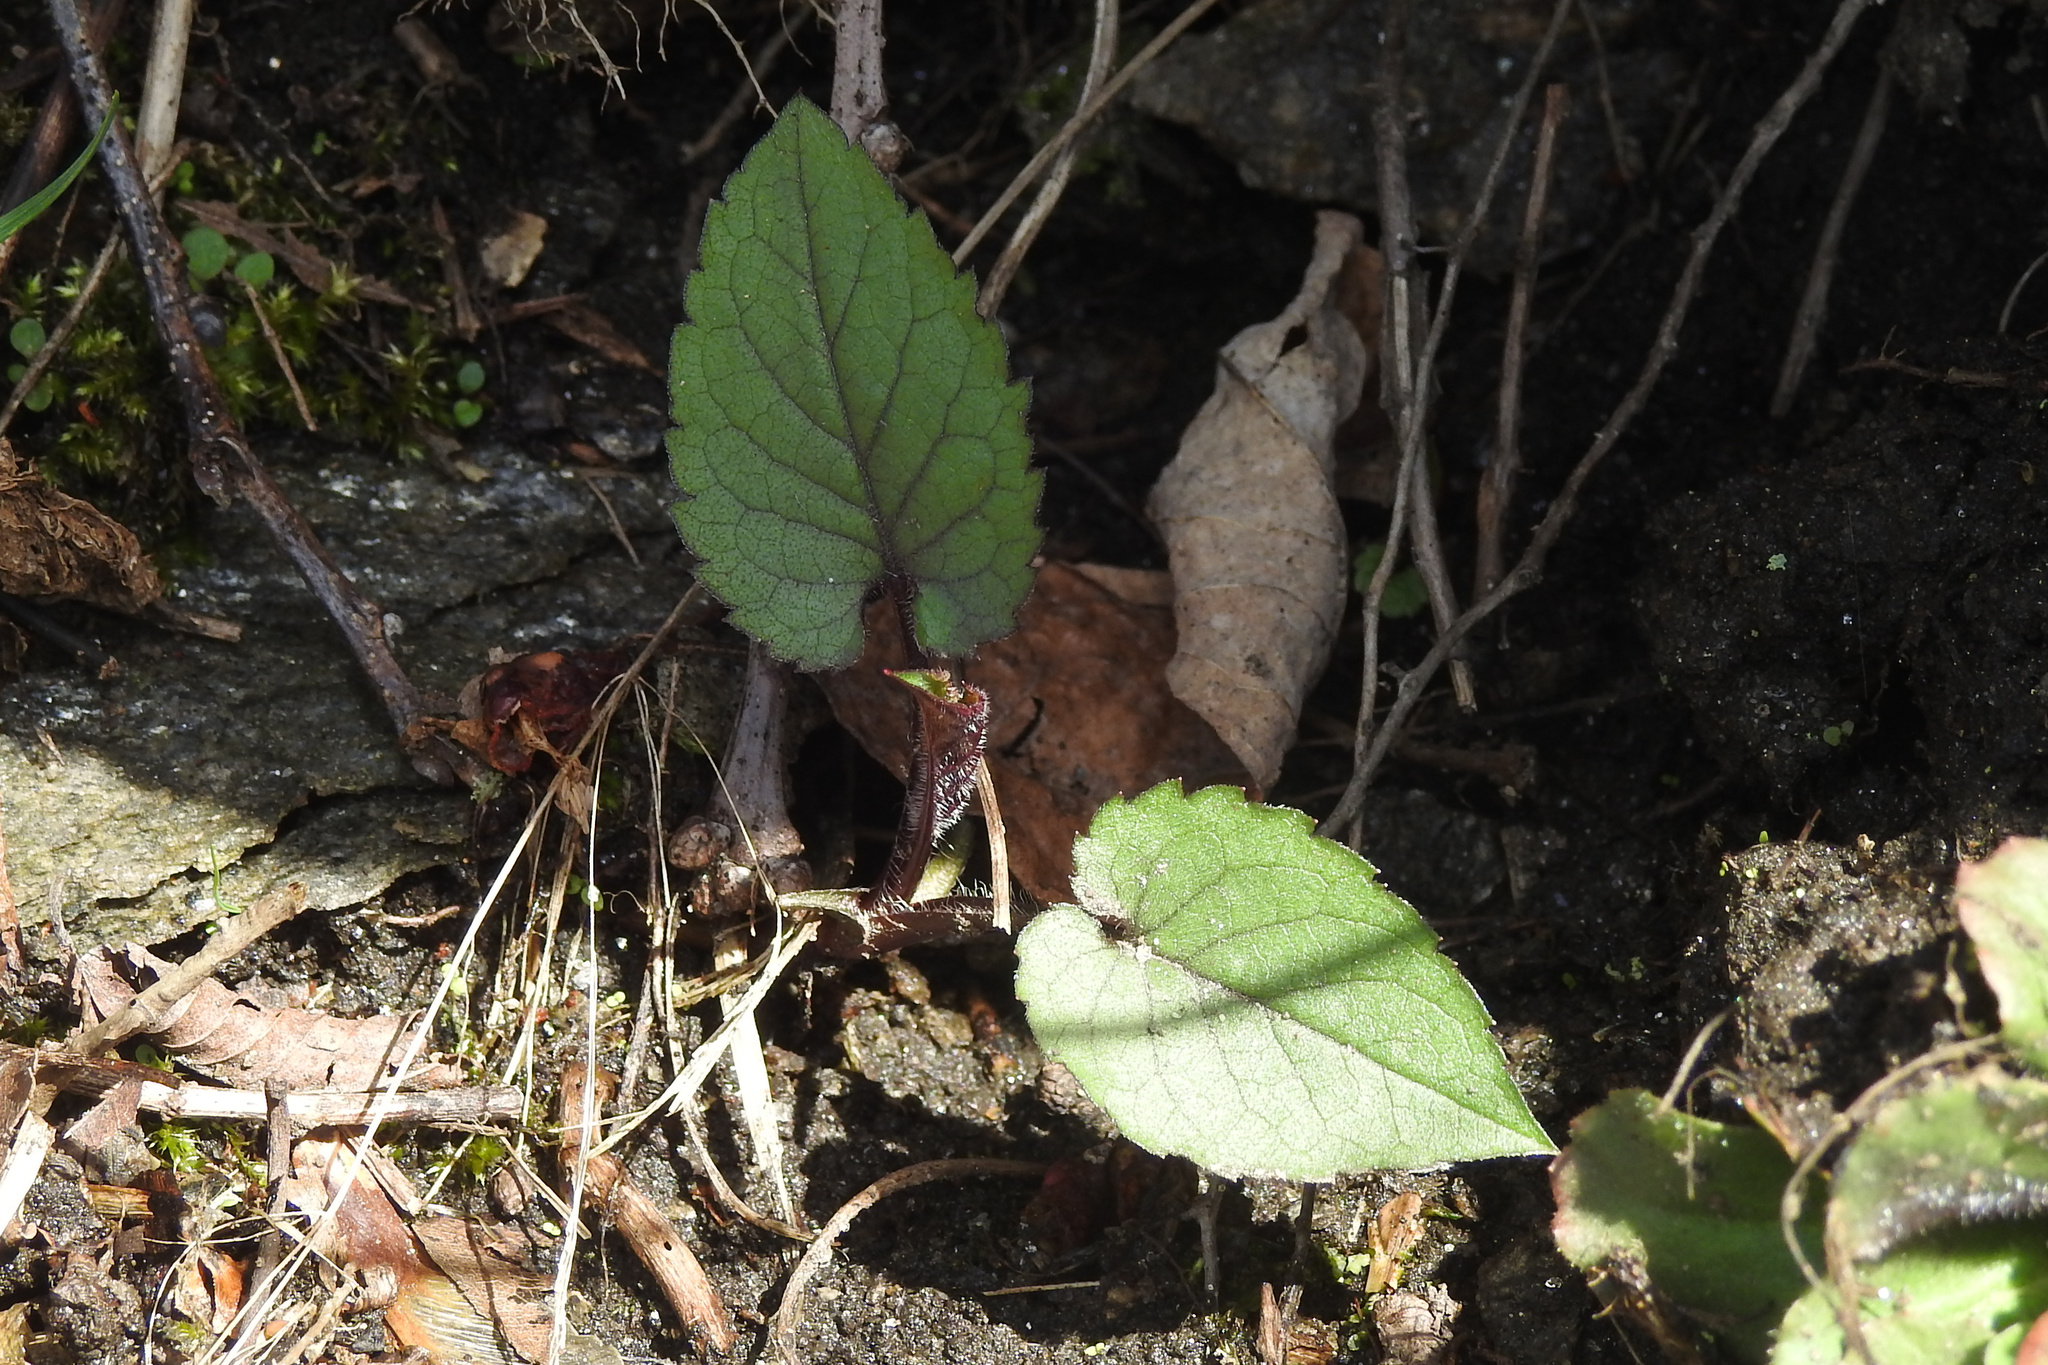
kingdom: Plantae
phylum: Tracheophyta
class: Magnoliopsida
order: Asterales
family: Asteraceae
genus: Eurybia
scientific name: Eurybia divaricata
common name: White wood aster
